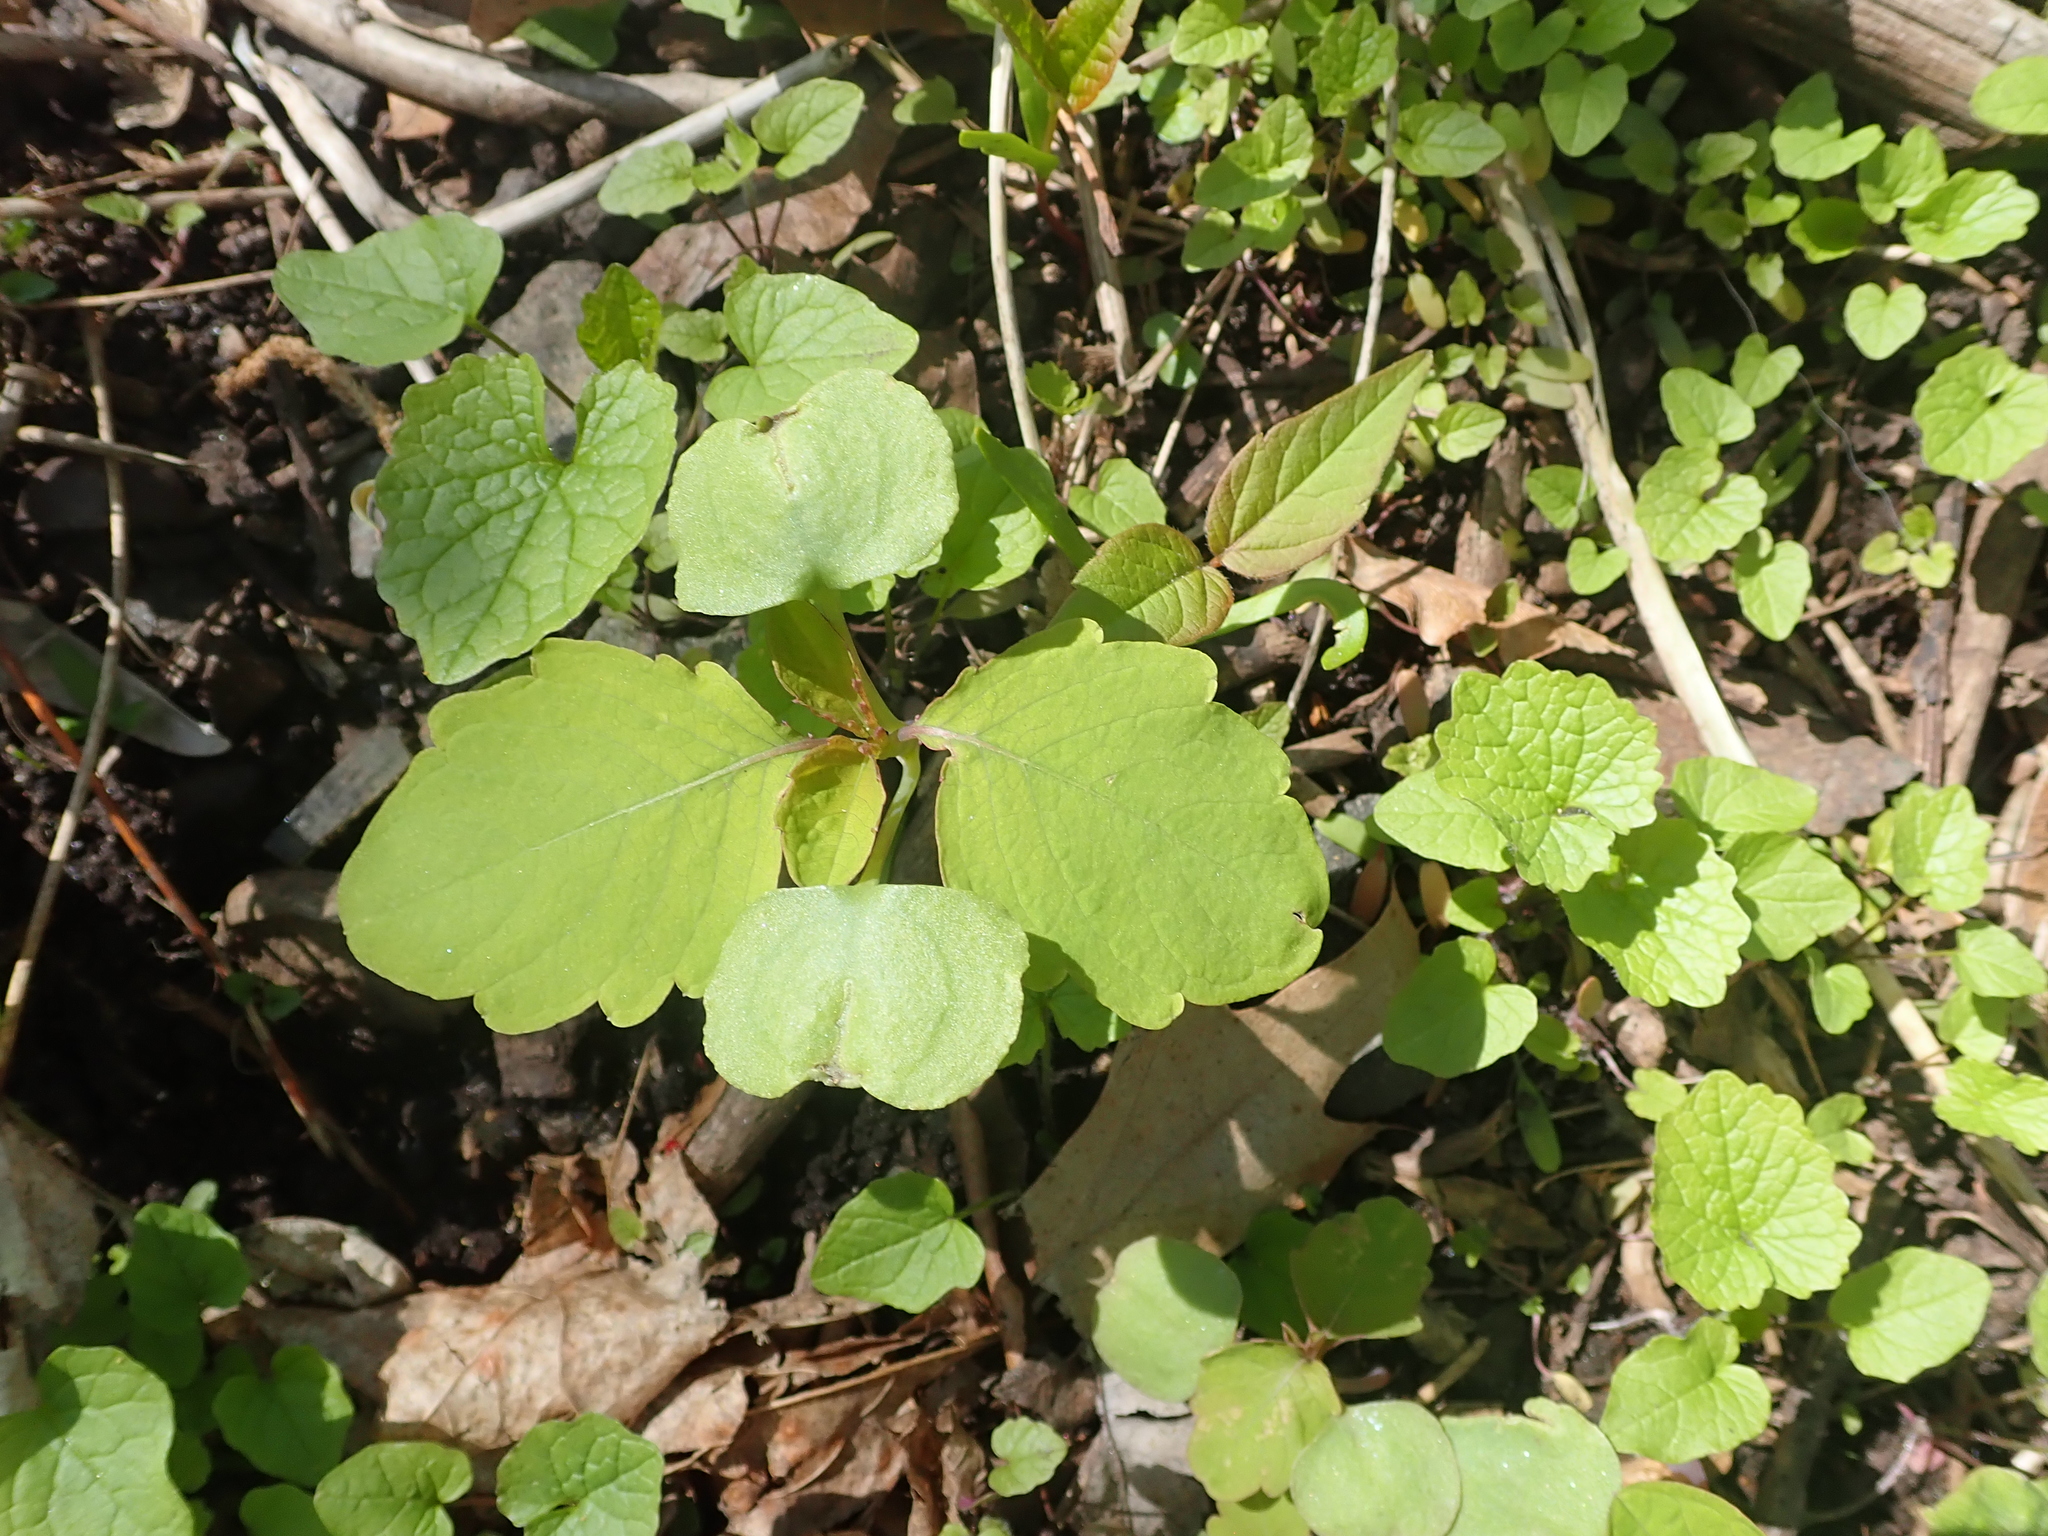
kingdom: Plantae
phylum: Tracheophyta
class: Magnoliopsida
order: Ericales
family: Balsaminaceae
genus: Impatiens
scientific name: Impatiens capensis
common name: Orange balsam
